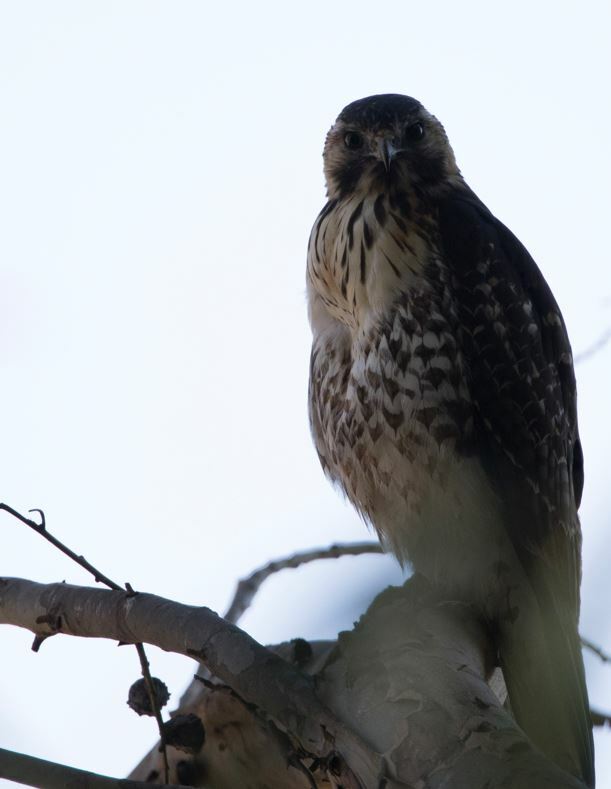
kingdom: Animalia
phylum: Chordata
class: Aves
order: Accipitriformes
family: Accipitridae
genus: Buteo
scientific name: Buteo polyosoma
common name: Variable hawk
